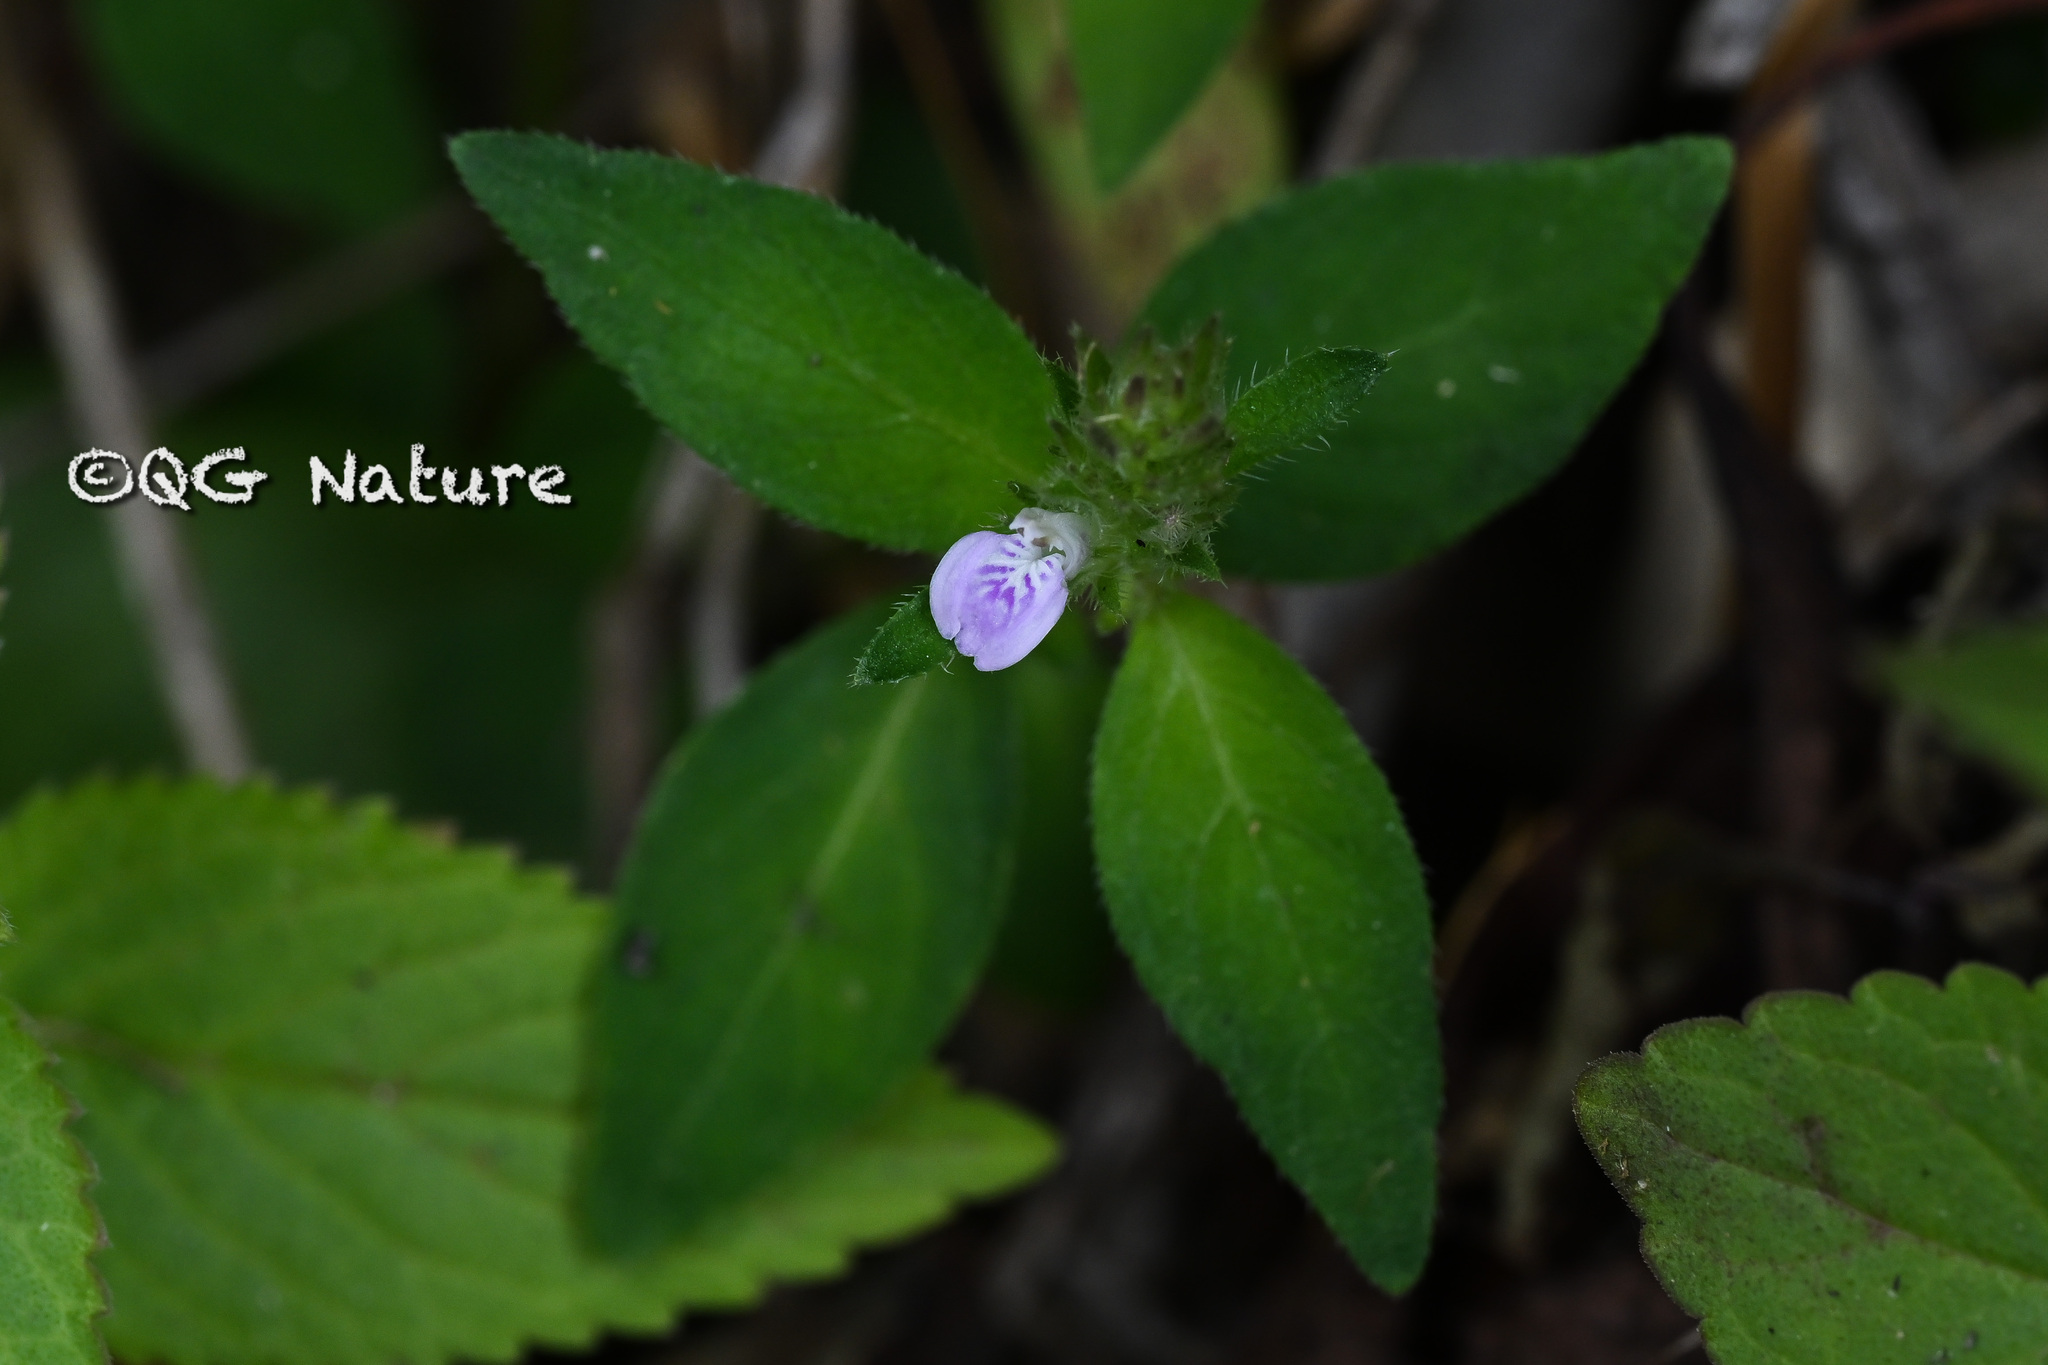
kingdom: Plantae
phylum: Tracheophyta
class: Magnoliopsida
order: Lamiales
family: Acanthaceae
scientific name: Acanthaceae
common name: Acanthaceae
